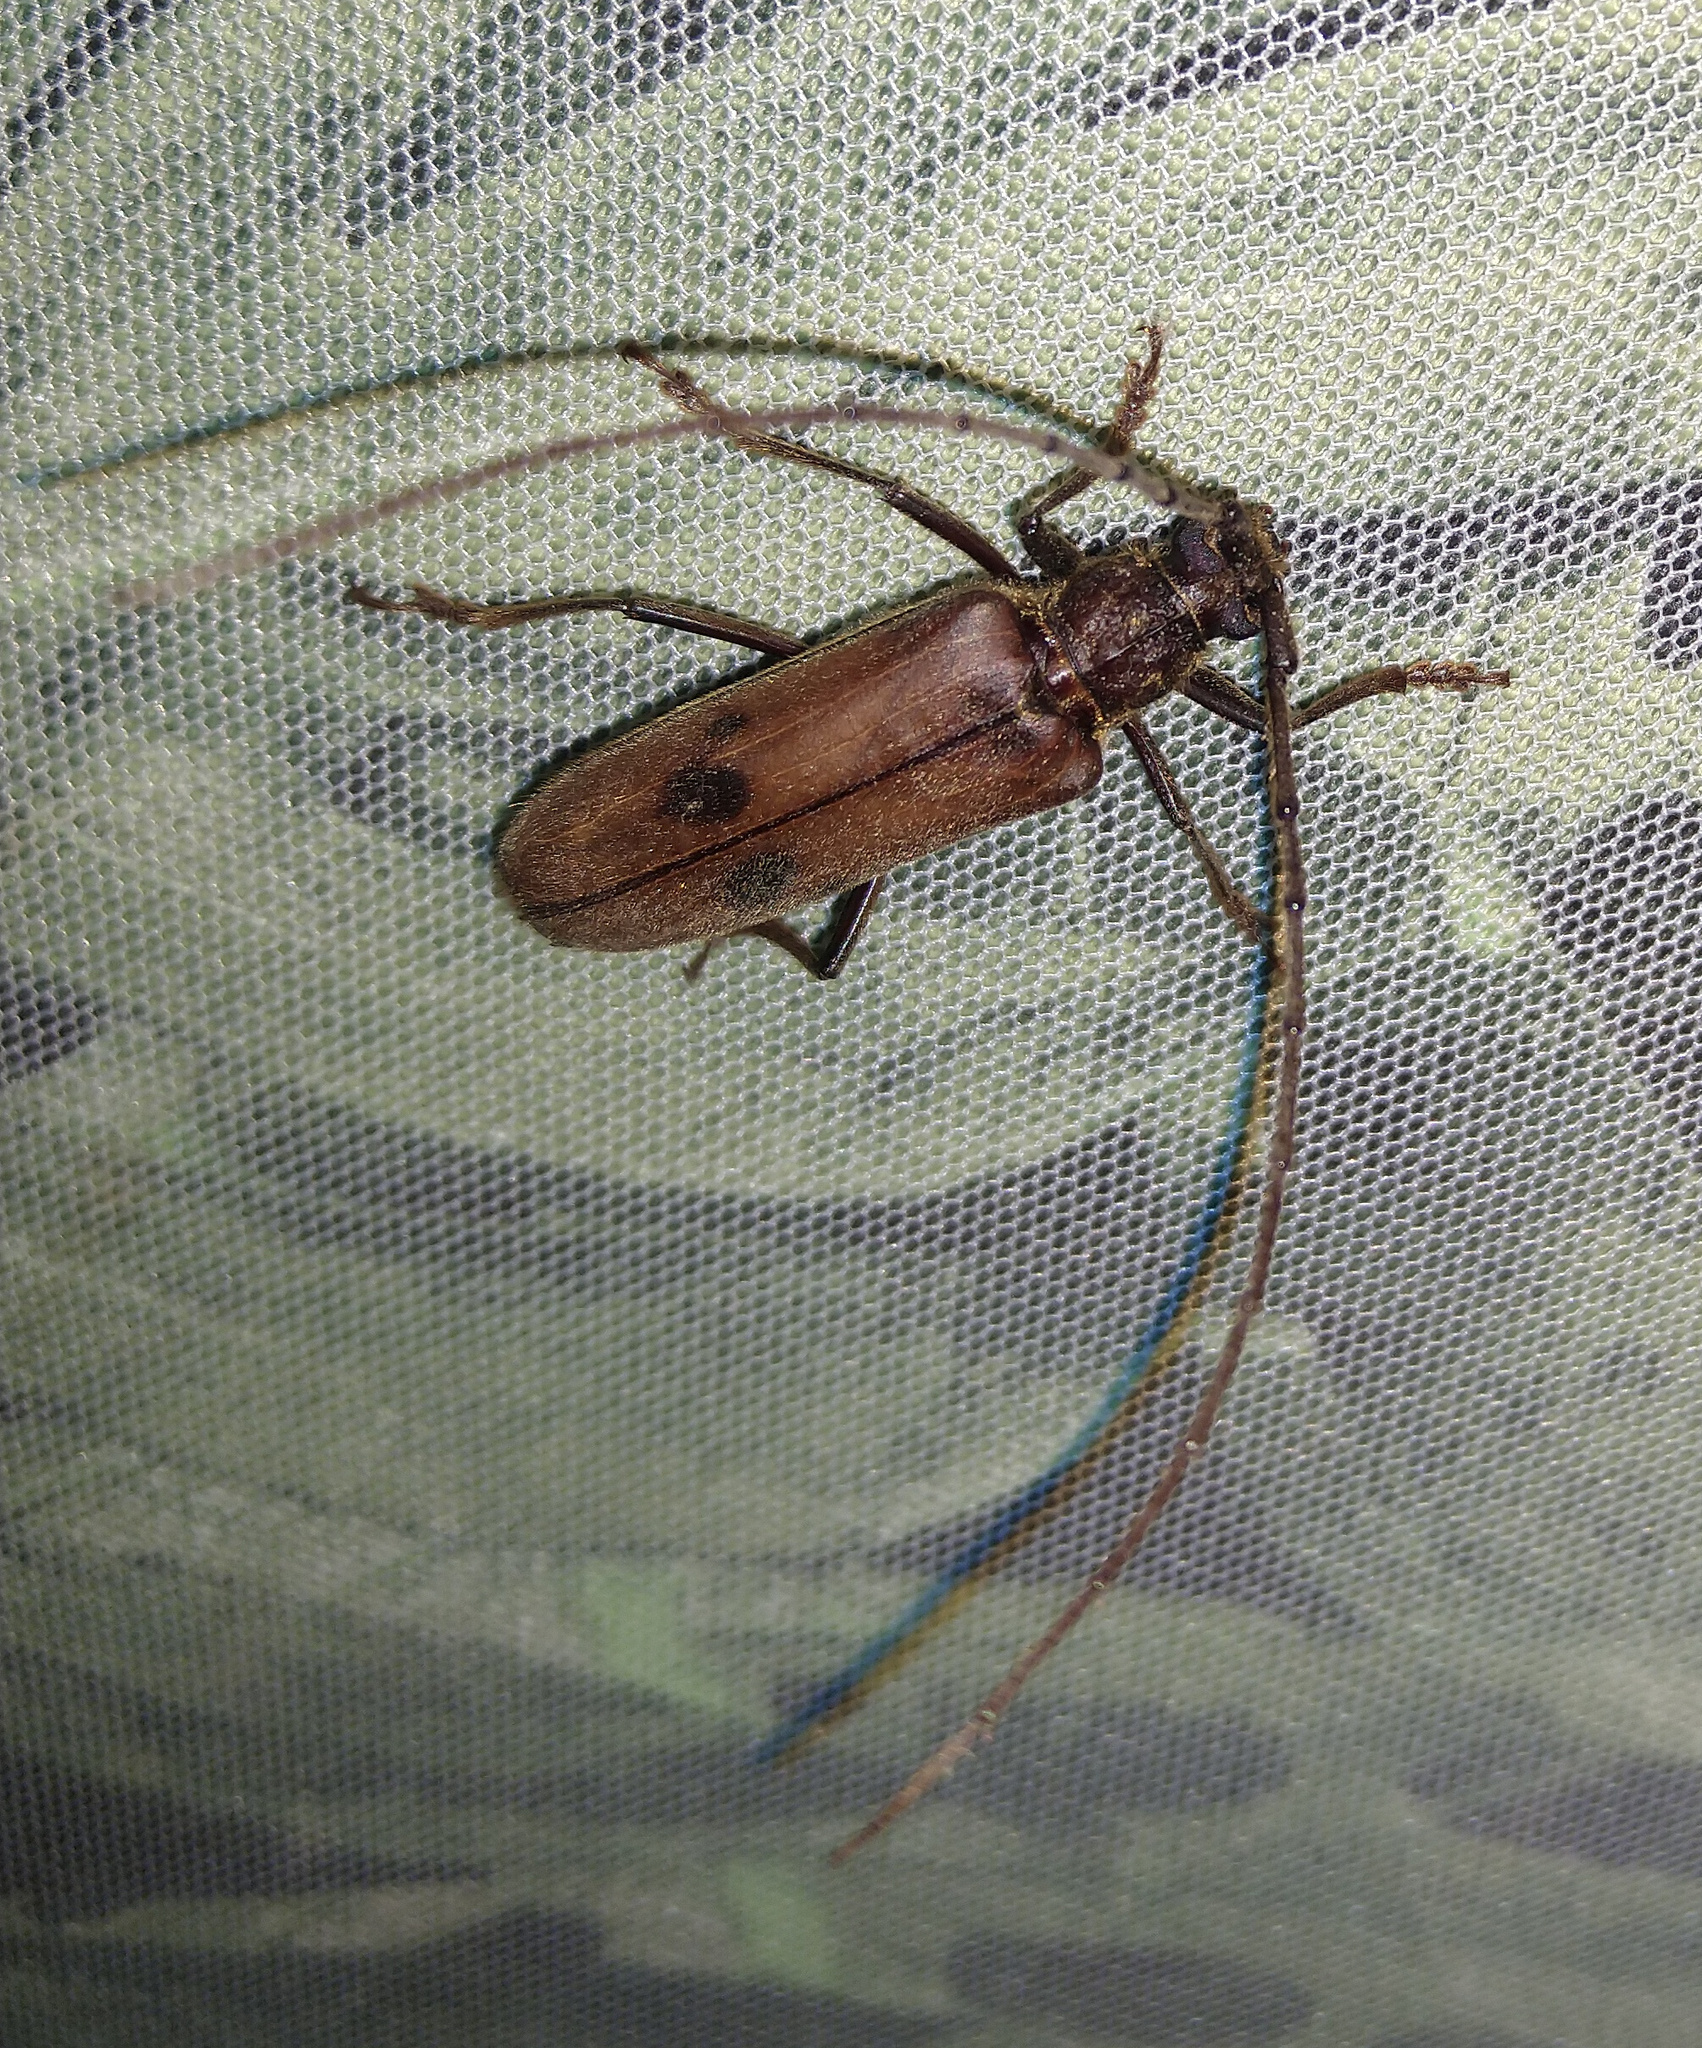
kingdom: Animalia
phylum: Arthropoda
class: Insecta
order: Coleoptera
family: Cerambycidae
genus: Ochrodion
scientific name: Ochrodion sexmaculatum
